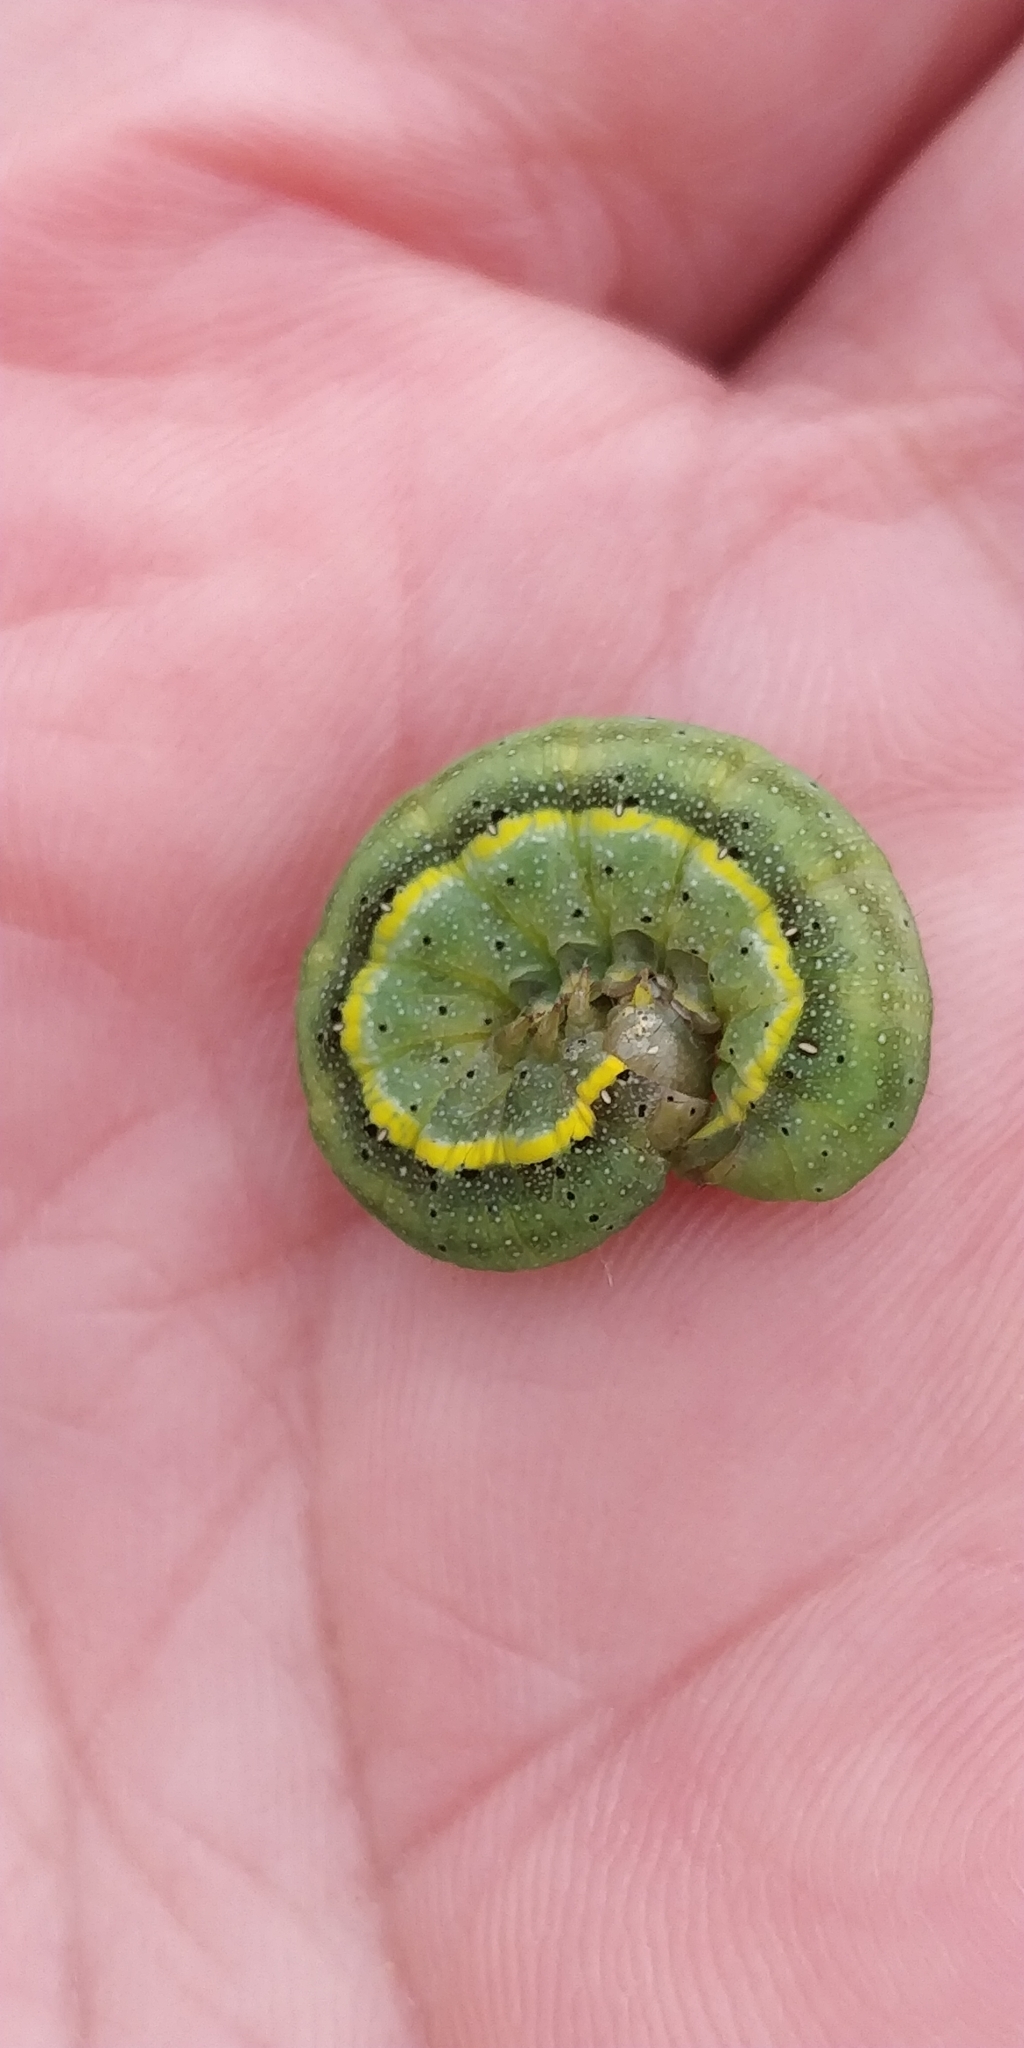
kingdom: Animalia
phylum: Arthropoda
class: Insecta
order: Lepidoptera
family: Noctuidae
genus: Lacanobia
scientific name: Lacanobia oleracea
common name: Bright-line brown-eye
